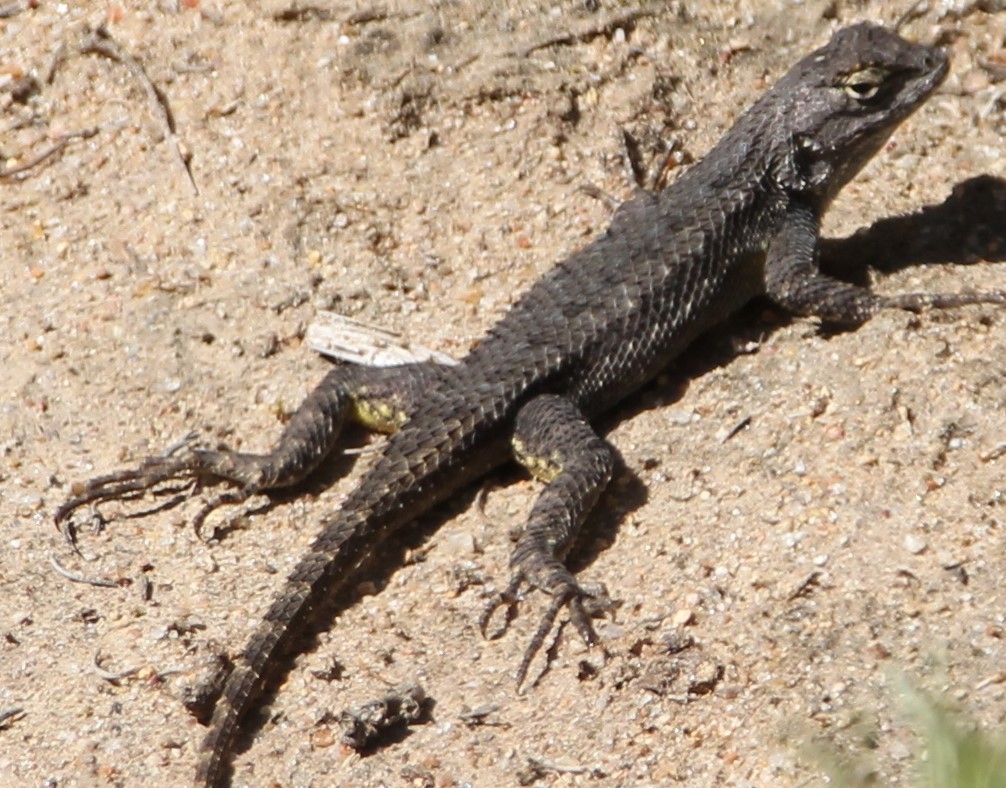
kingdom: Animalia
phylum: Chordata
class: Squamata
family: Phrynosomatidae
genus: Sceloporus
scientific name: Sceloporus occidentalis
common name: Western fence lizard
